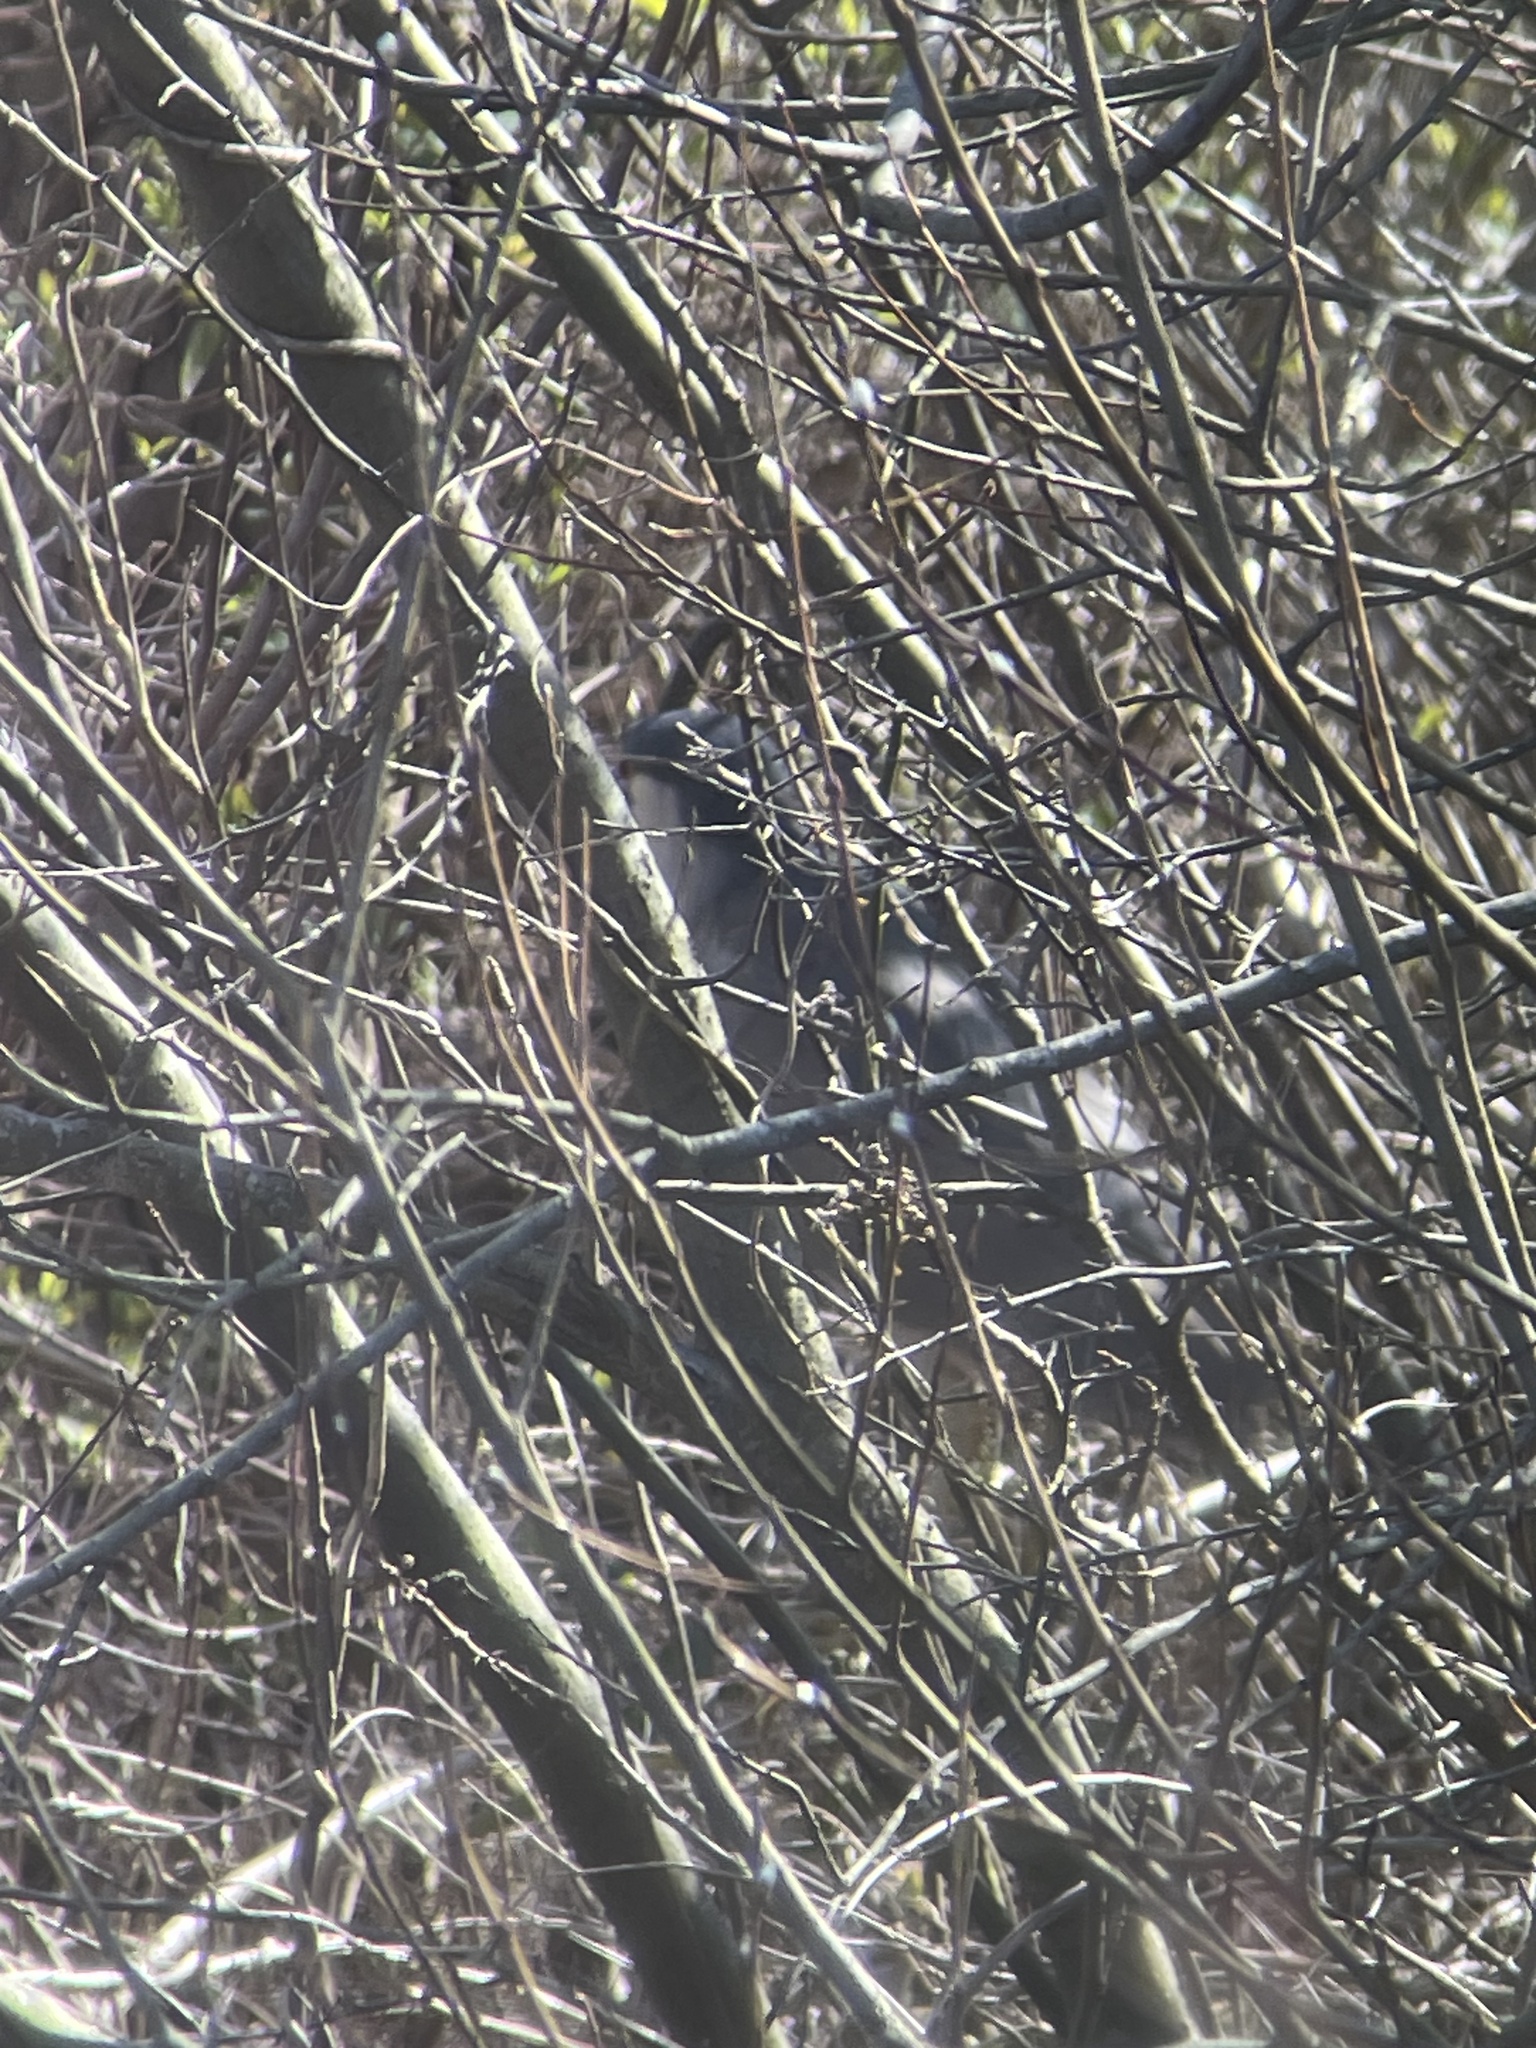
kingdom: Animalia
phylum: Chordata
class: Aves
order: Pelecaniformes
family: Ardeidae
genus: Nycticorax
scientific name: Nycticorax nycticorax
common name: Black-crowned night heron
